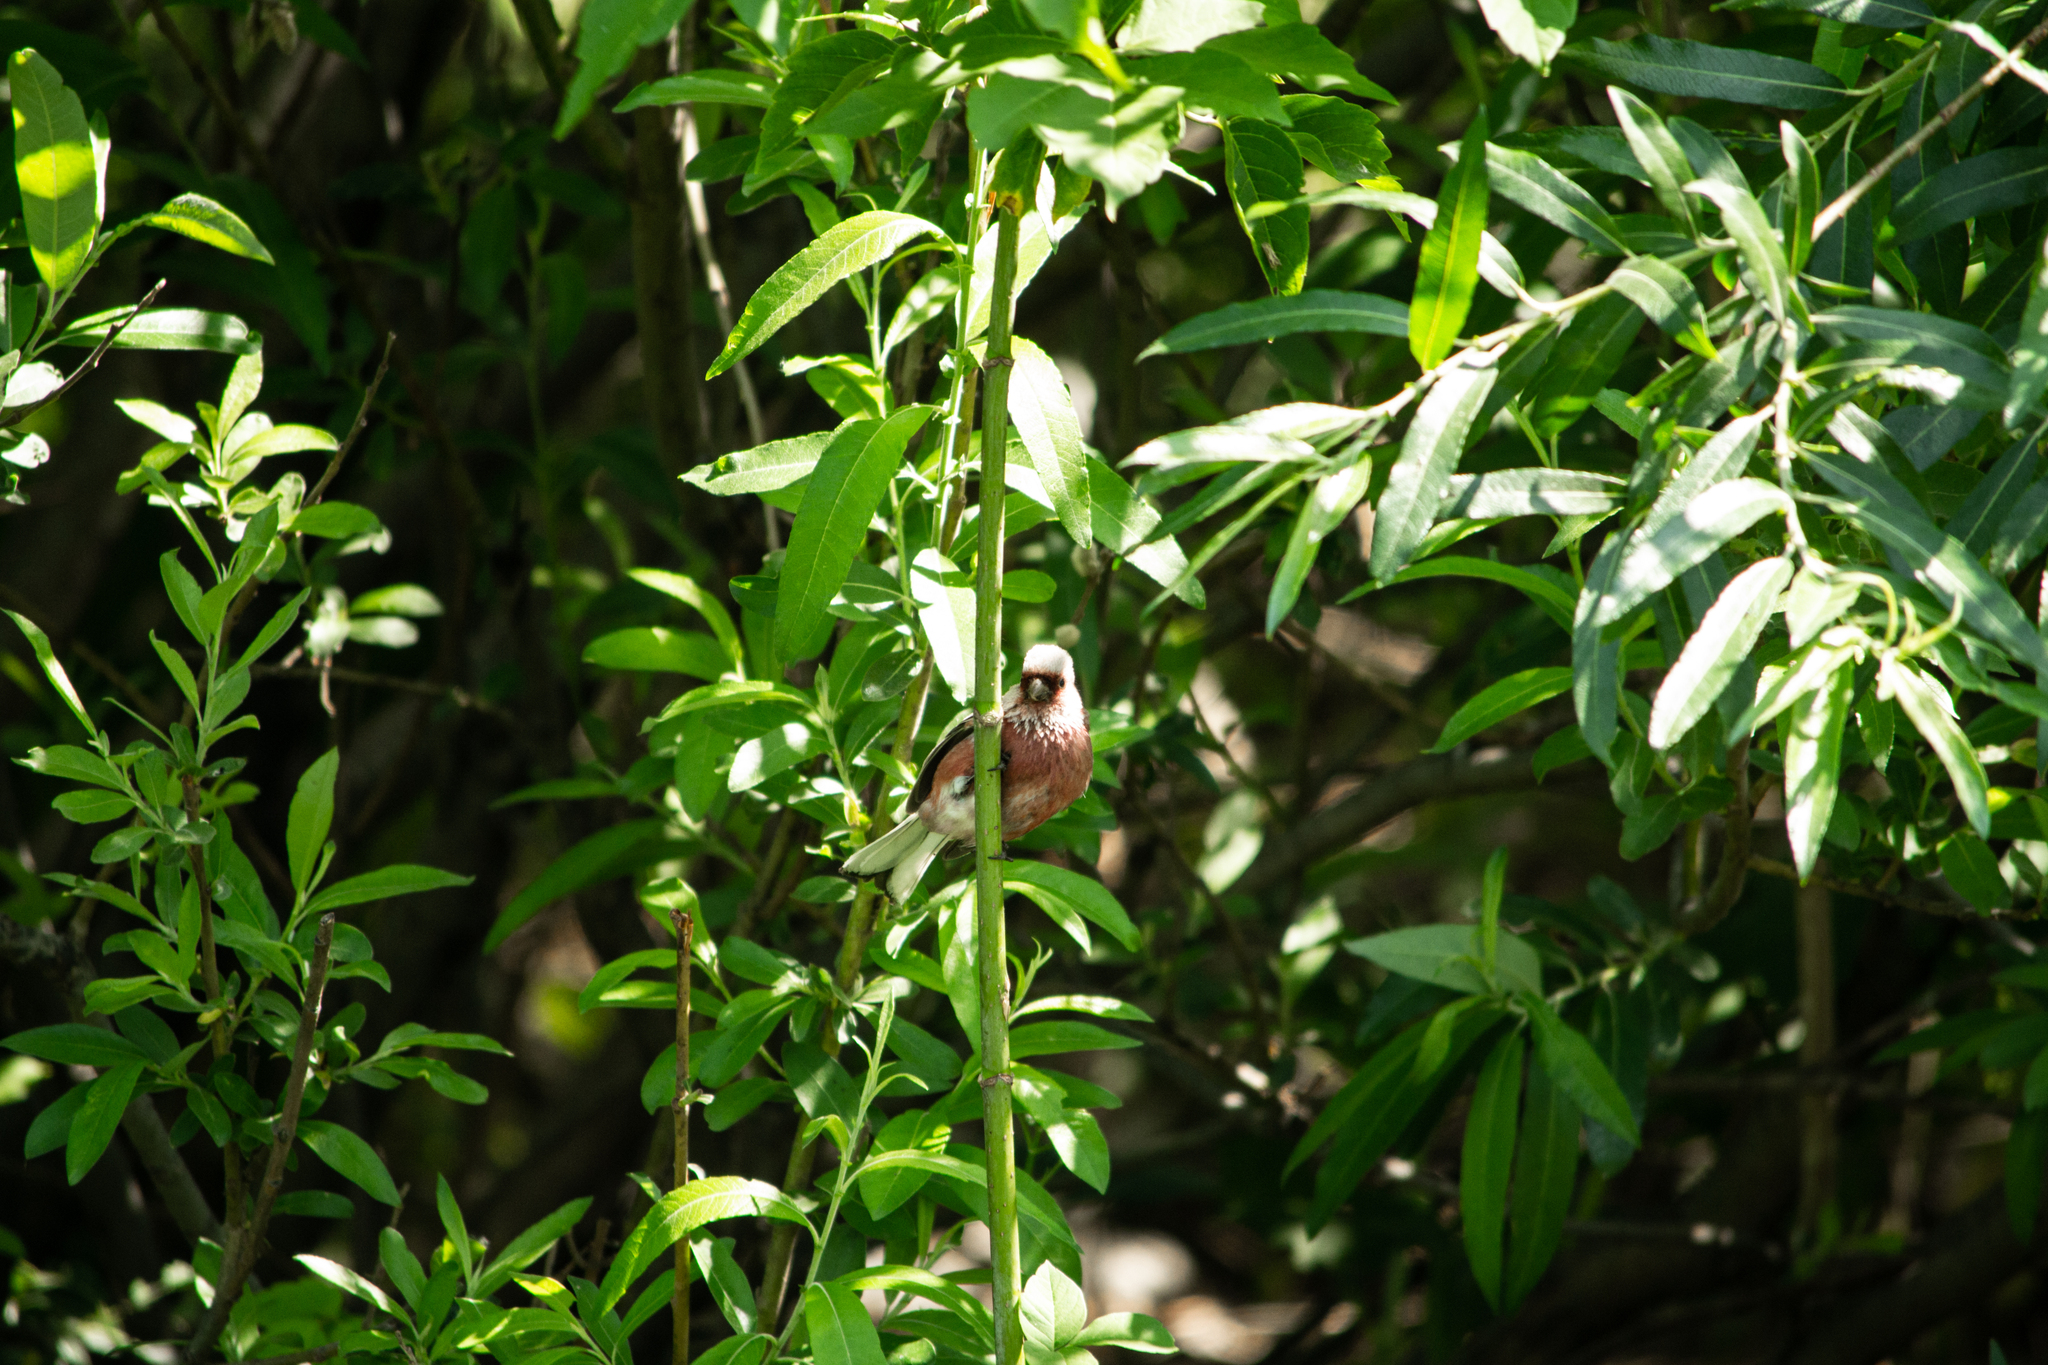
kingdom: Animalia
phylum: Chordata
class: Aves
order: Passeriformes
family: Fringillidae
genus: Carpodacus
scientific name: Carpodacus sibiricus
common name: Long-tailed rosefinch
